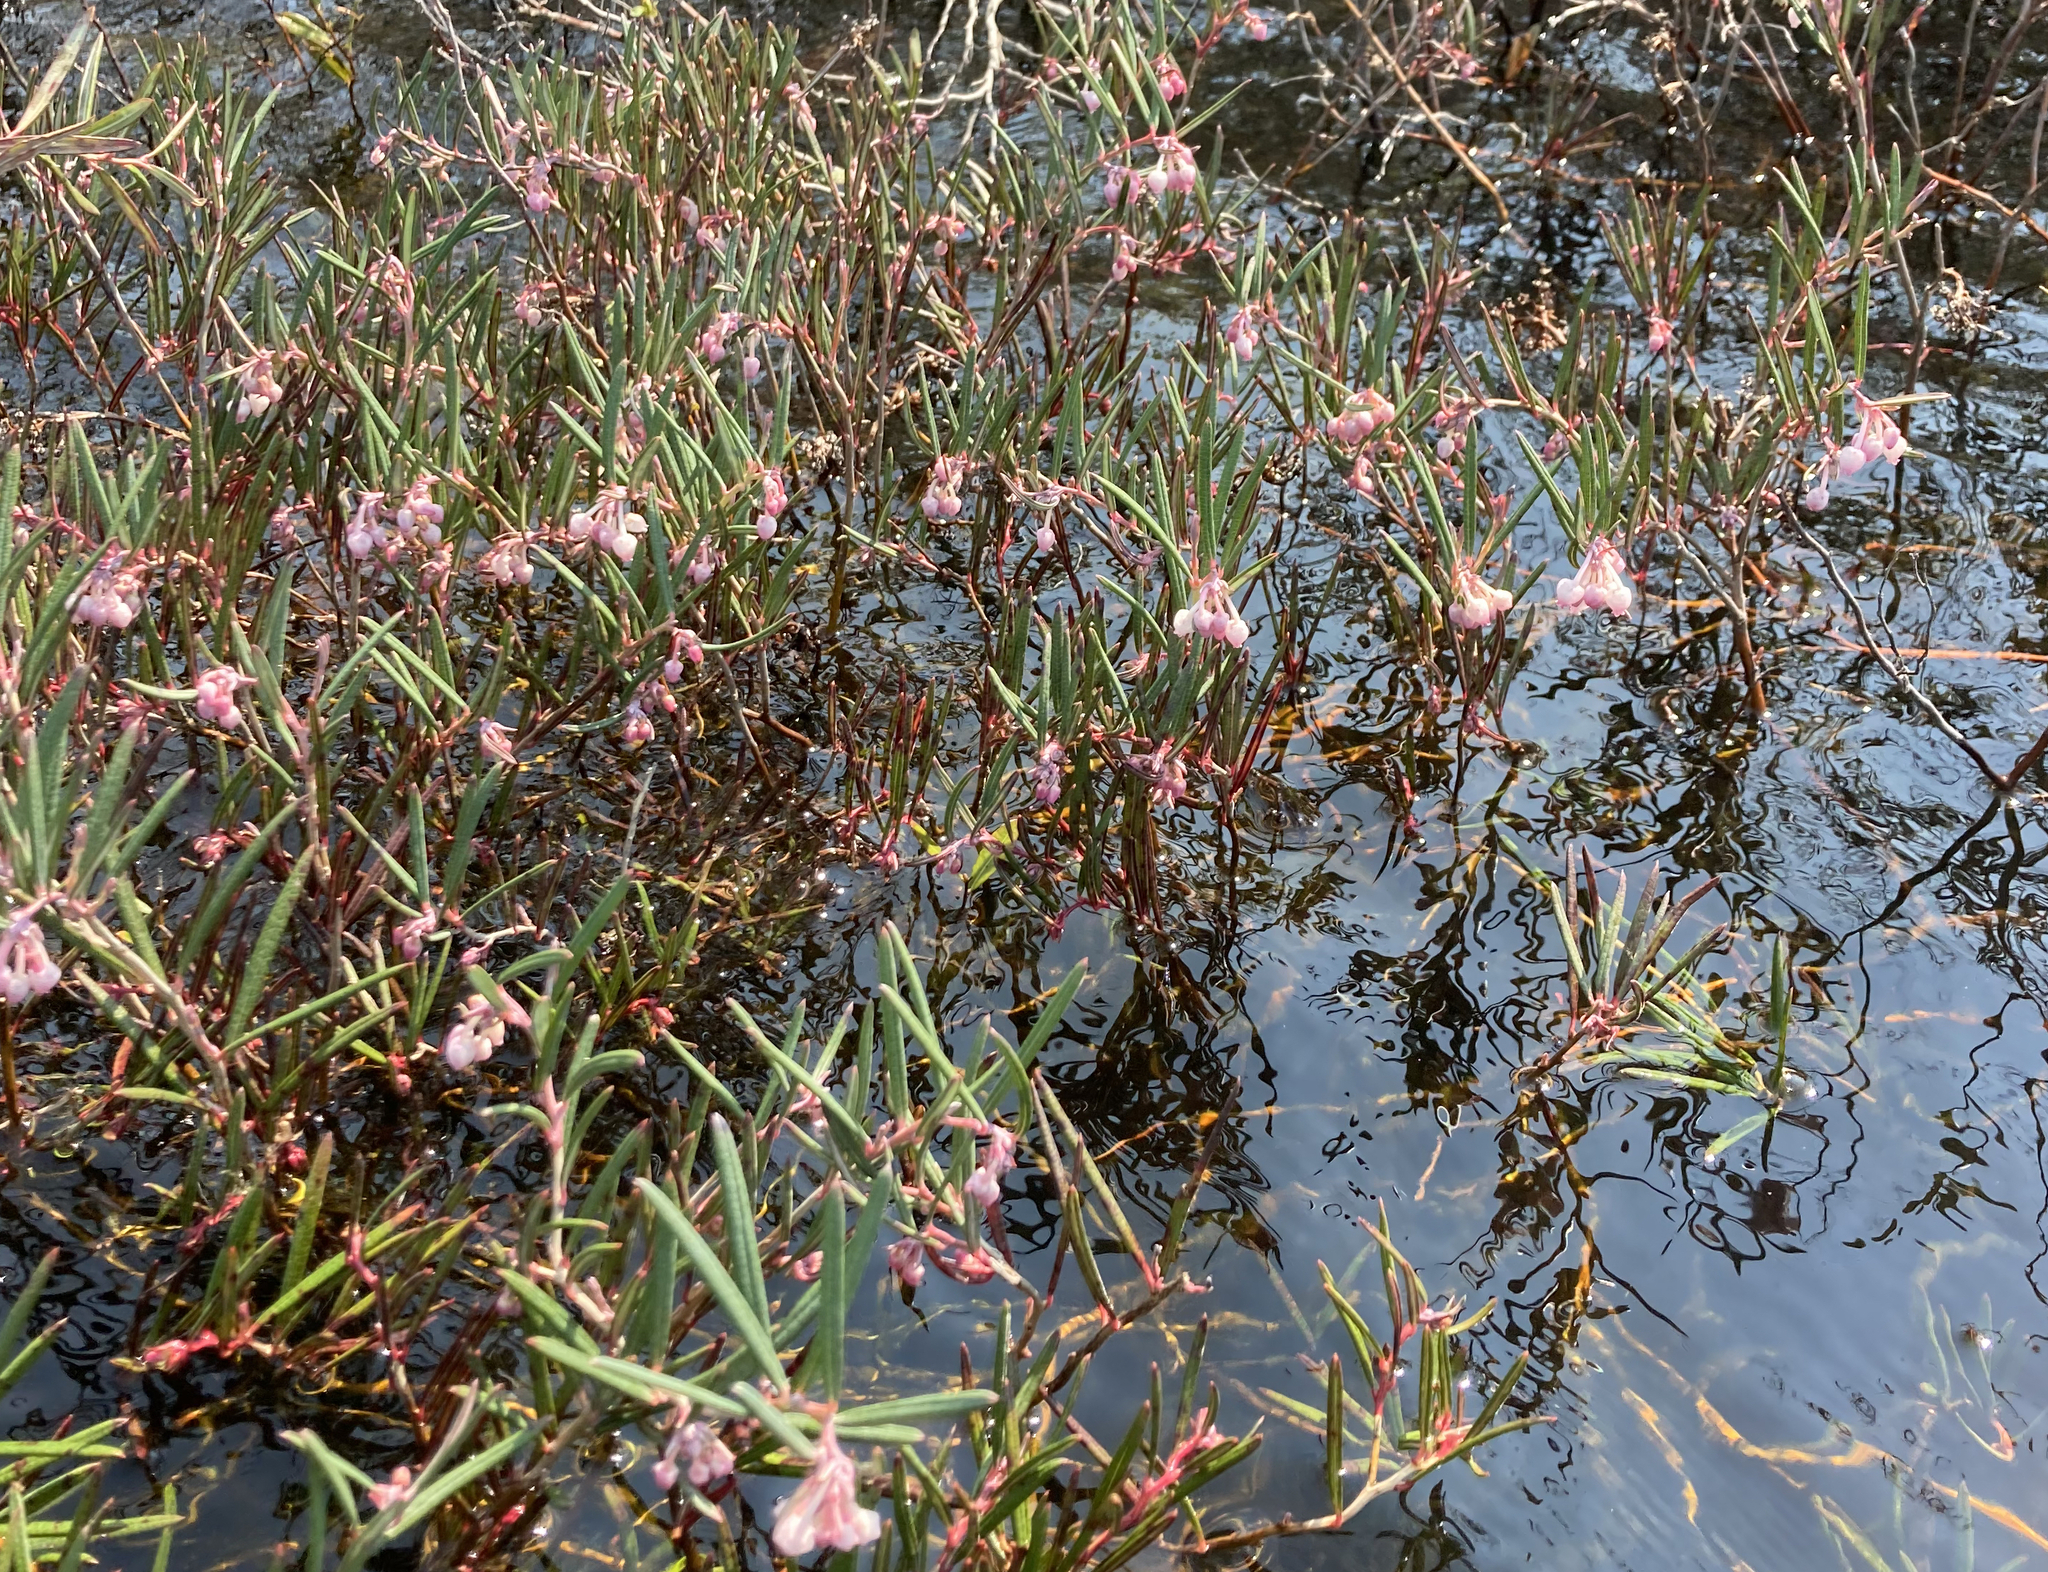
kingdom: Plantae
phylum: Tracheophyta
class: Magnoliopsida
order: Ericales
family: Ericaceae
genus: Andromeda
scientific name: Andromeda polifolia
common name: Bog-rosemary
